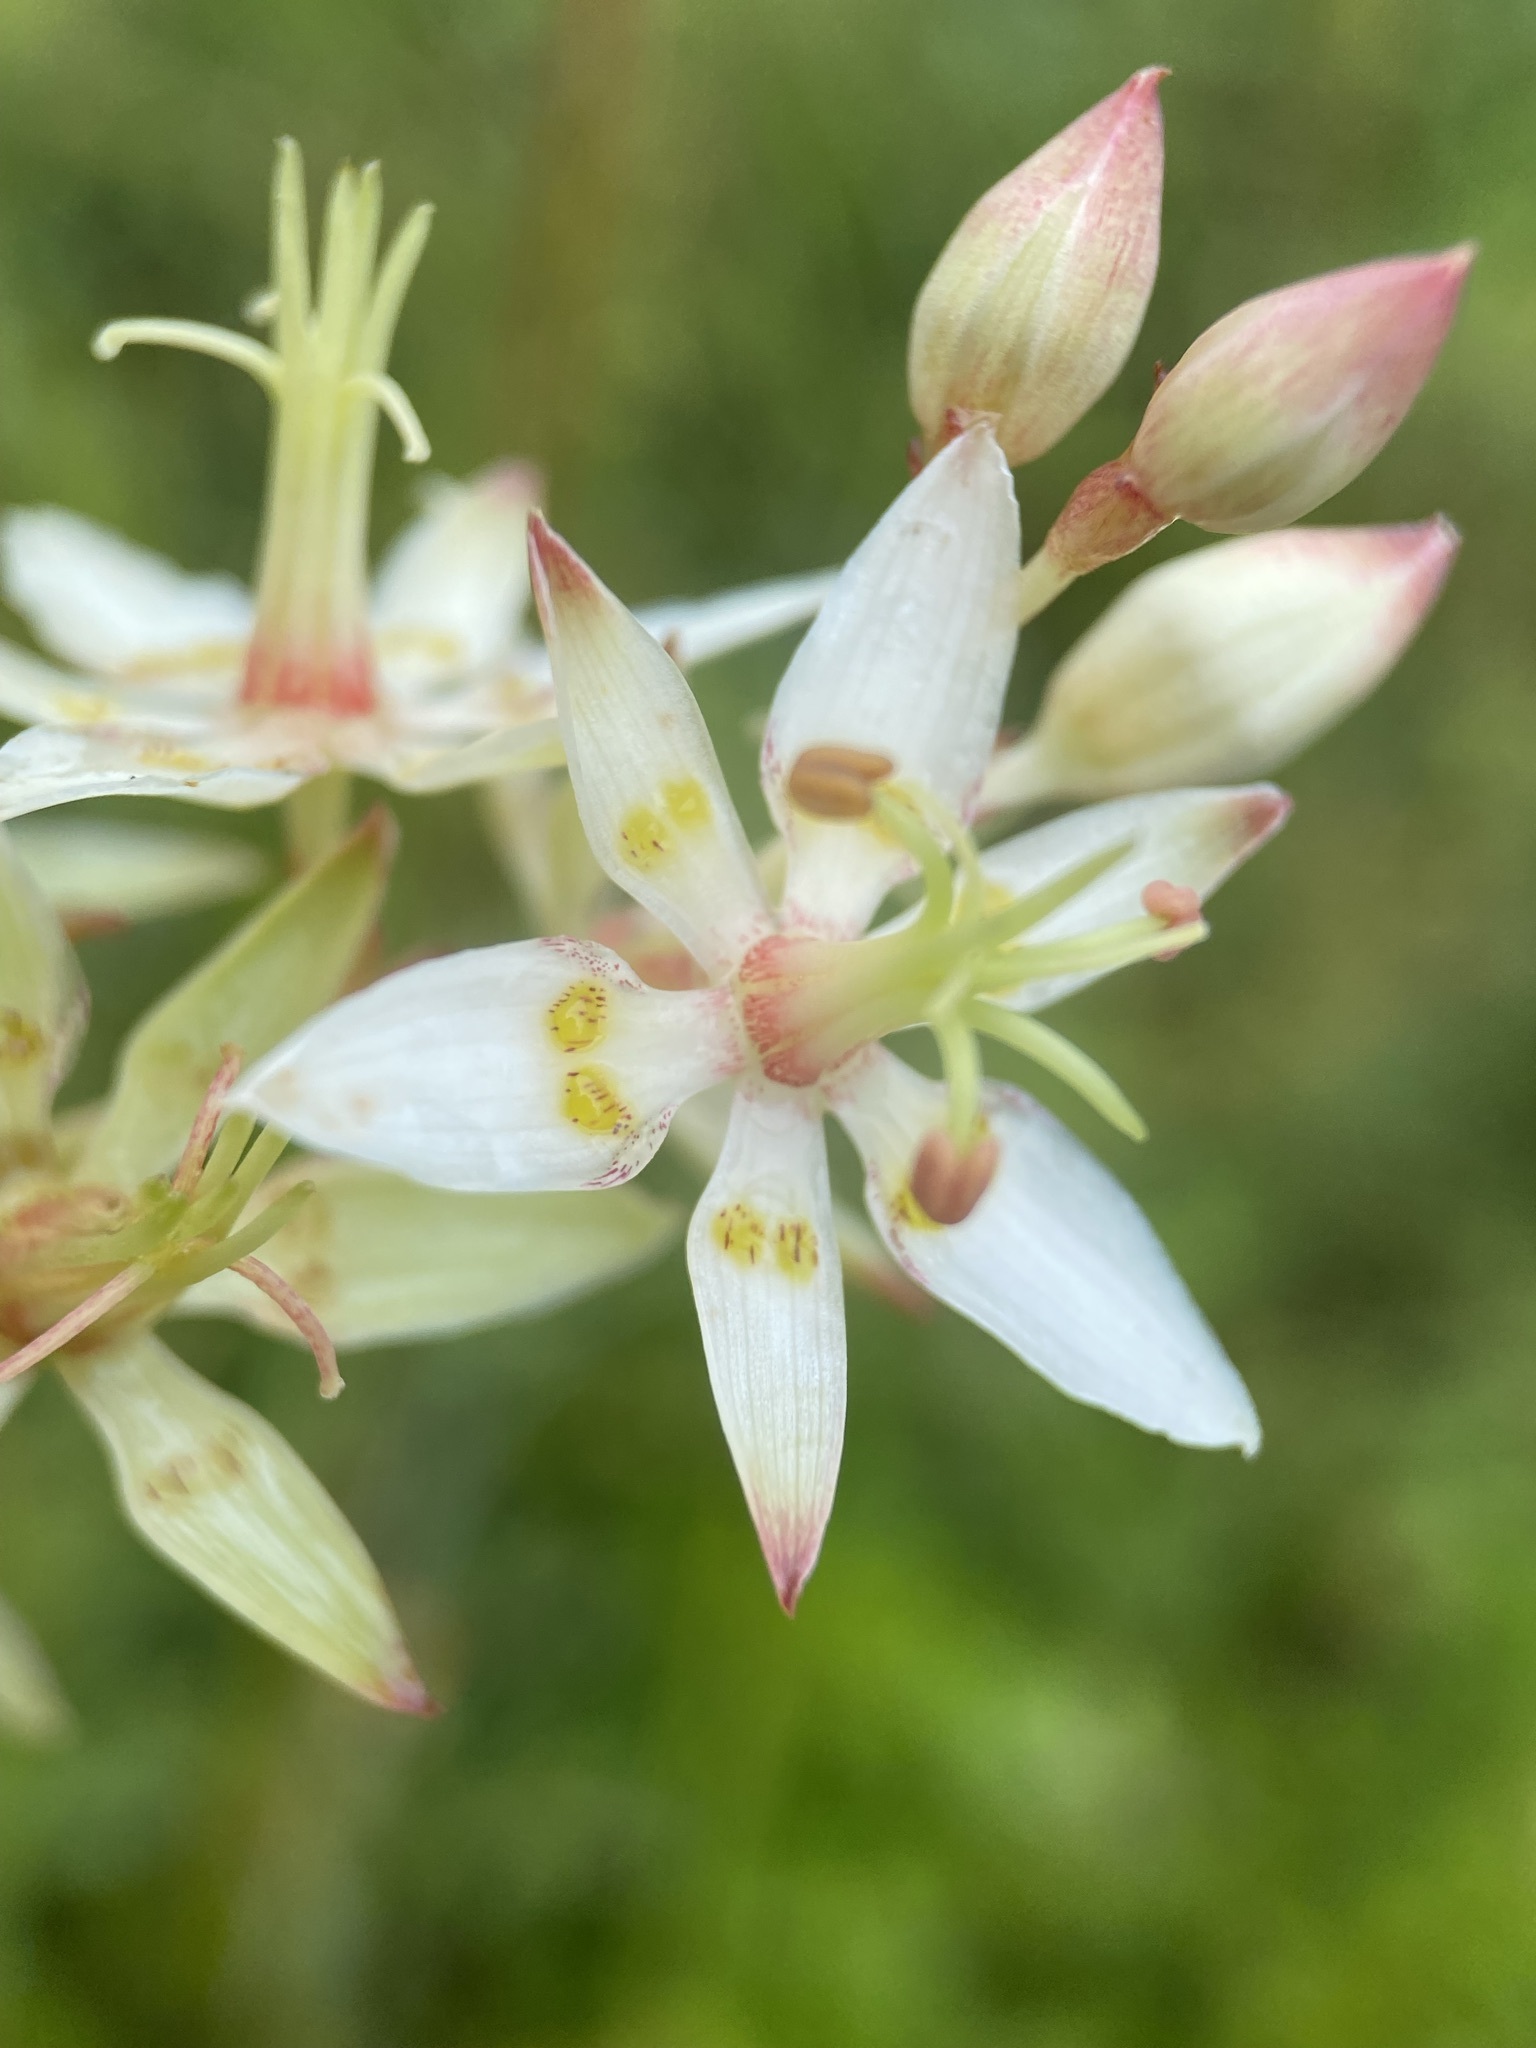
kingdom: Plantae
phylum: Tracheophyta
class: Liliopsida
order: Liliales
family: Melanthiaceae
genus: Zigadenus
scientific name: Zigadenus glaberrimus
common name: Sandbog death camas
